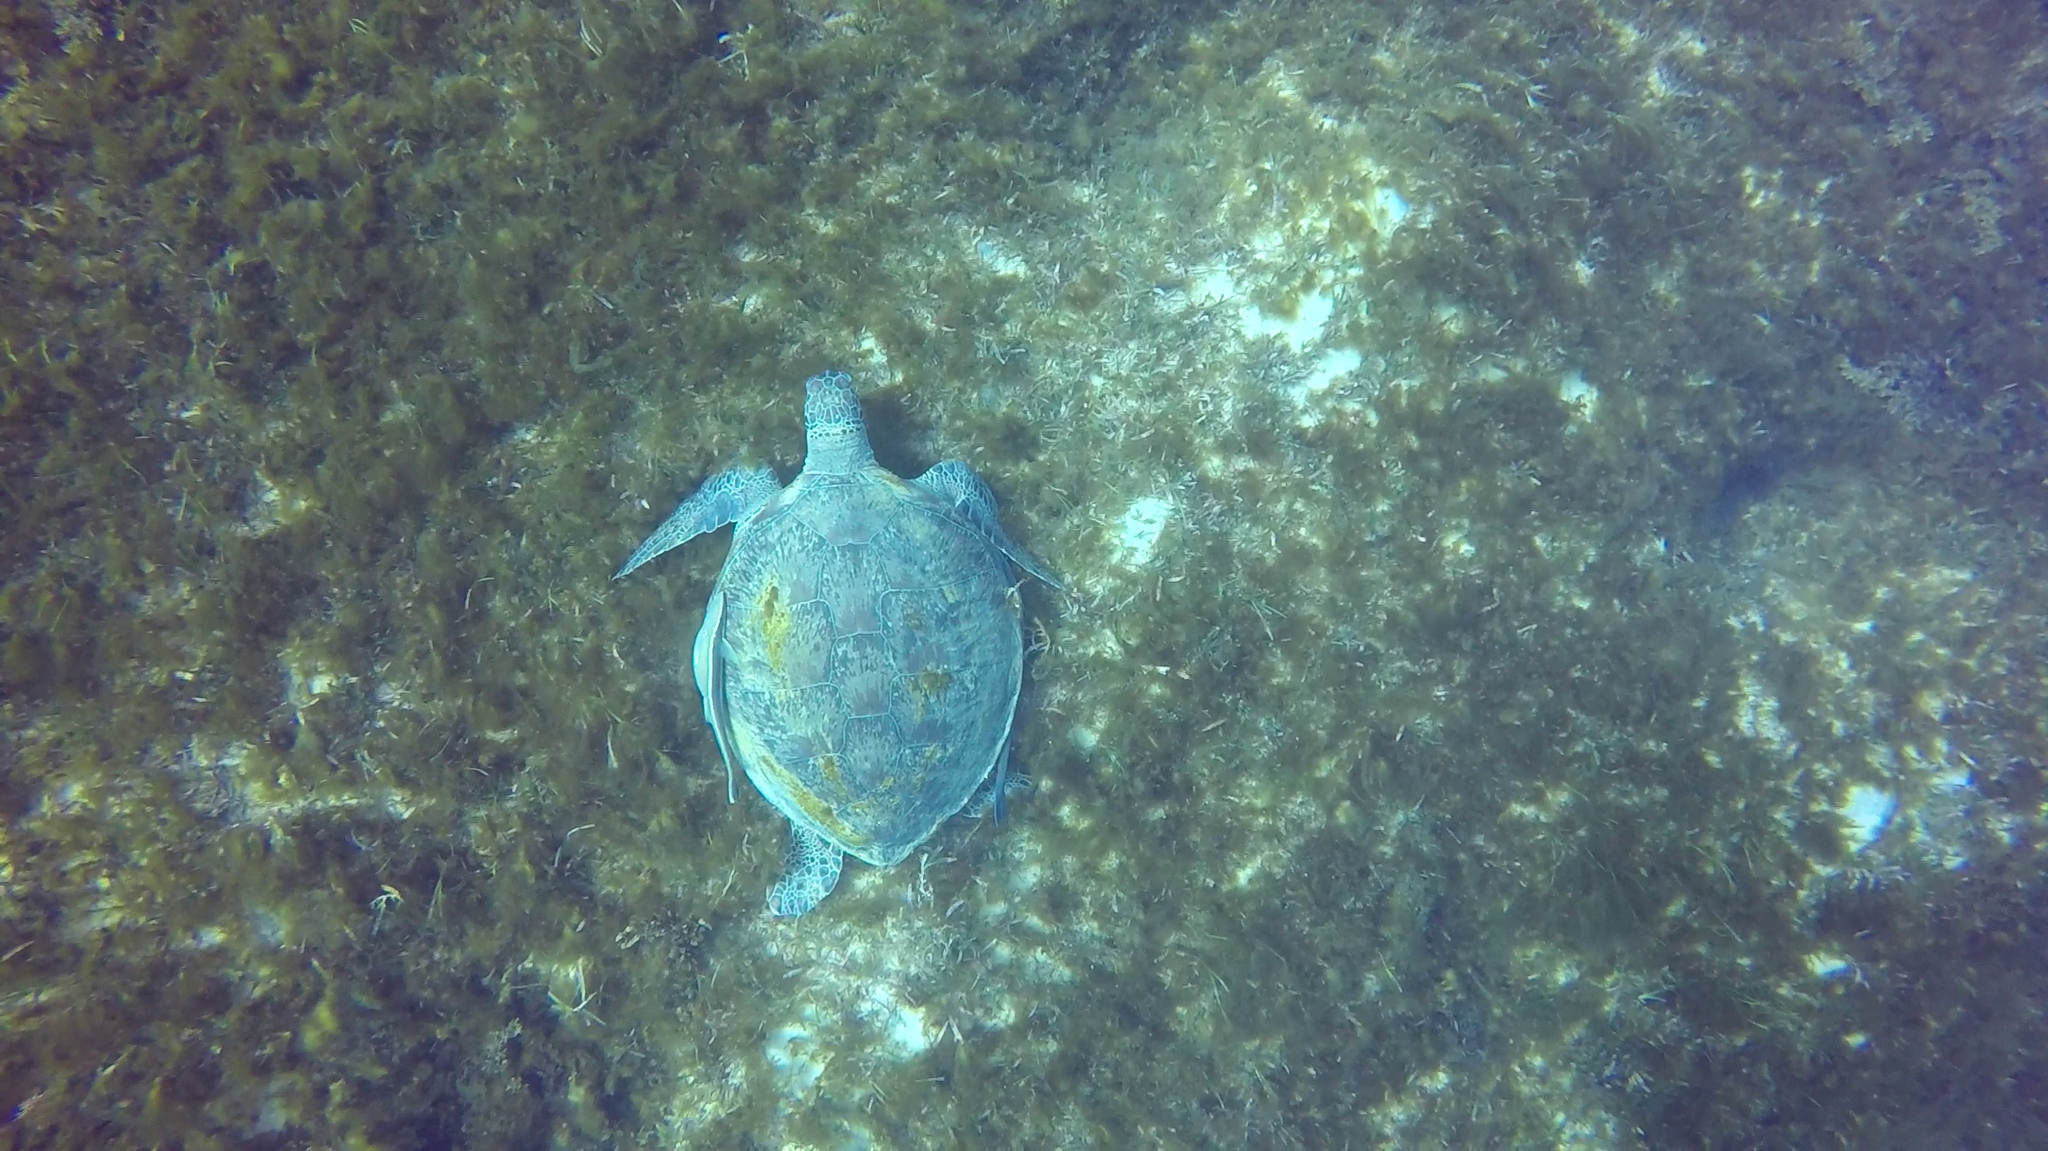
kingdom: Animalia
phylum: Chordata
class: Testudines
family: Cheloniidae
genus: Chelonia
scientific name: Chelonia mydas
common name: Green turtle
